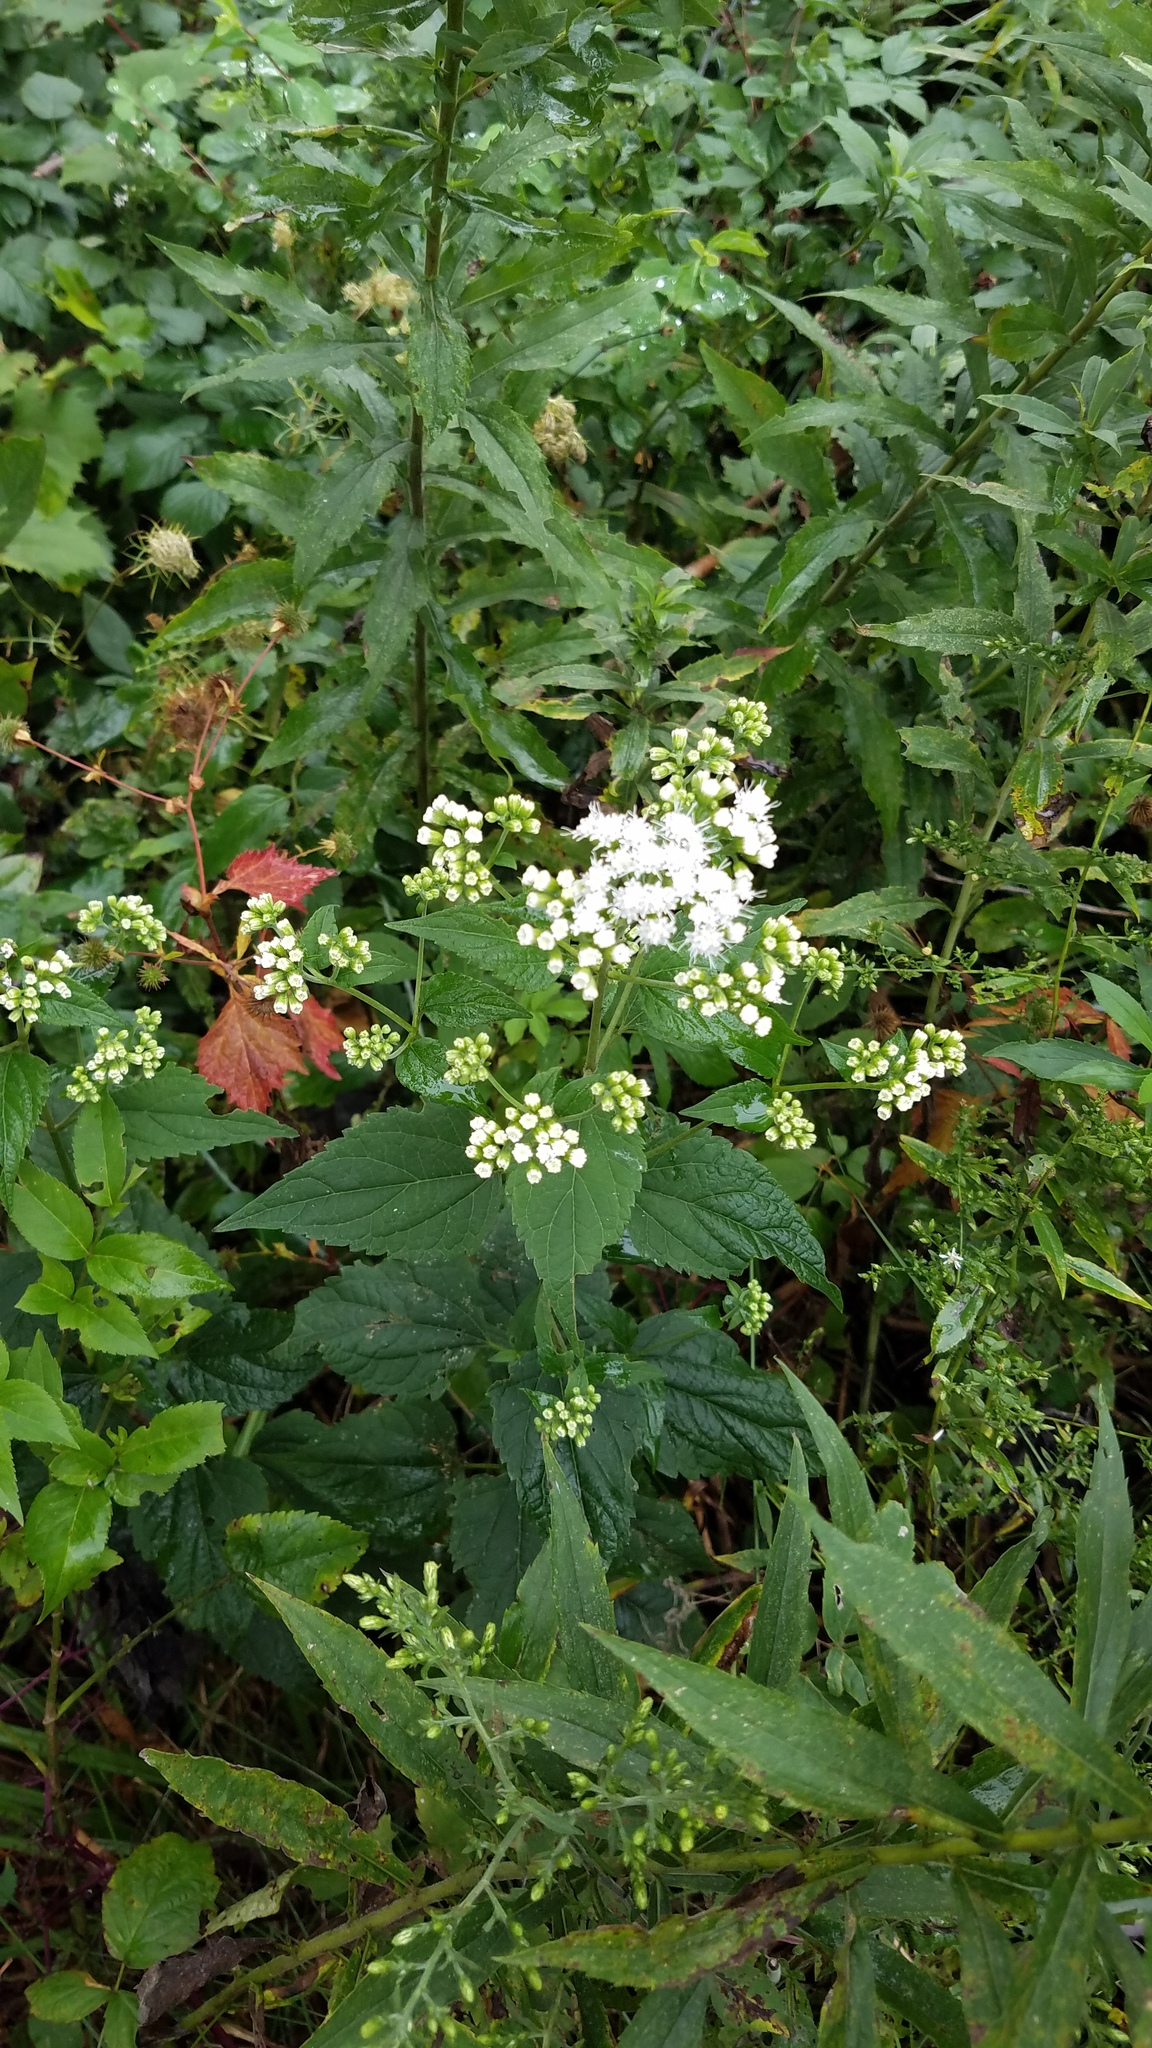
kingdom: Plantae
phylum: Tracheophyta
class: Magnoliopsida
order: Asterales
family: Asteraceae
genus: Ageratina
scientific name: Ageratina altissima
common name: White snakeroot
